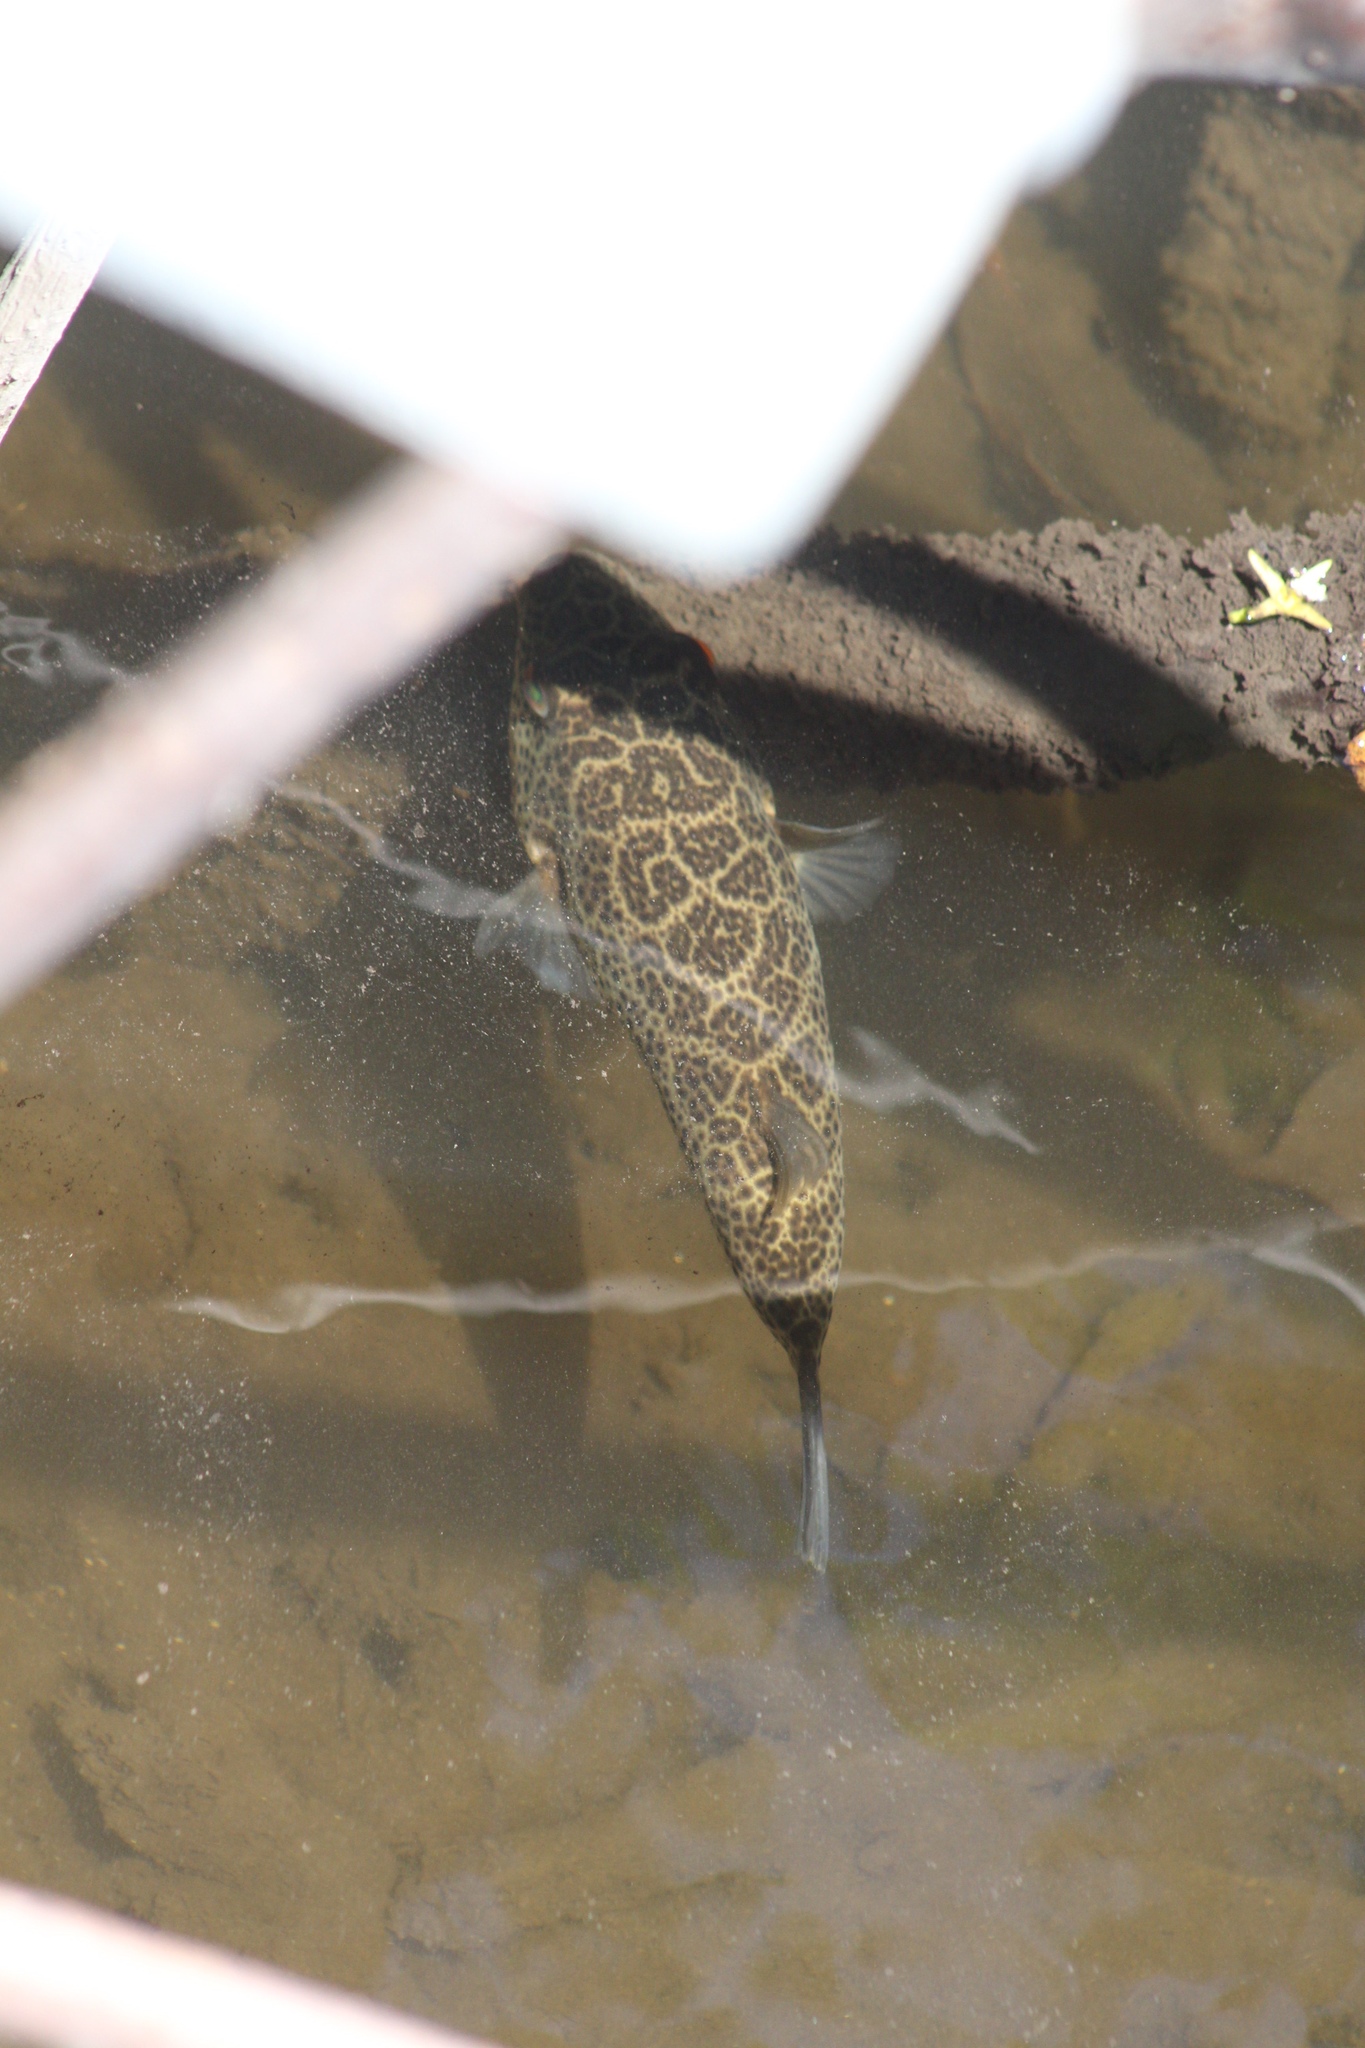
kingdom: Animalia
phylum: Chordata
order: Tetraodontiformes
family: Tetraodontidae
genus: Sphoeroides
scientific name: Sphoeroides testudineus
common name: Checkered puffer
